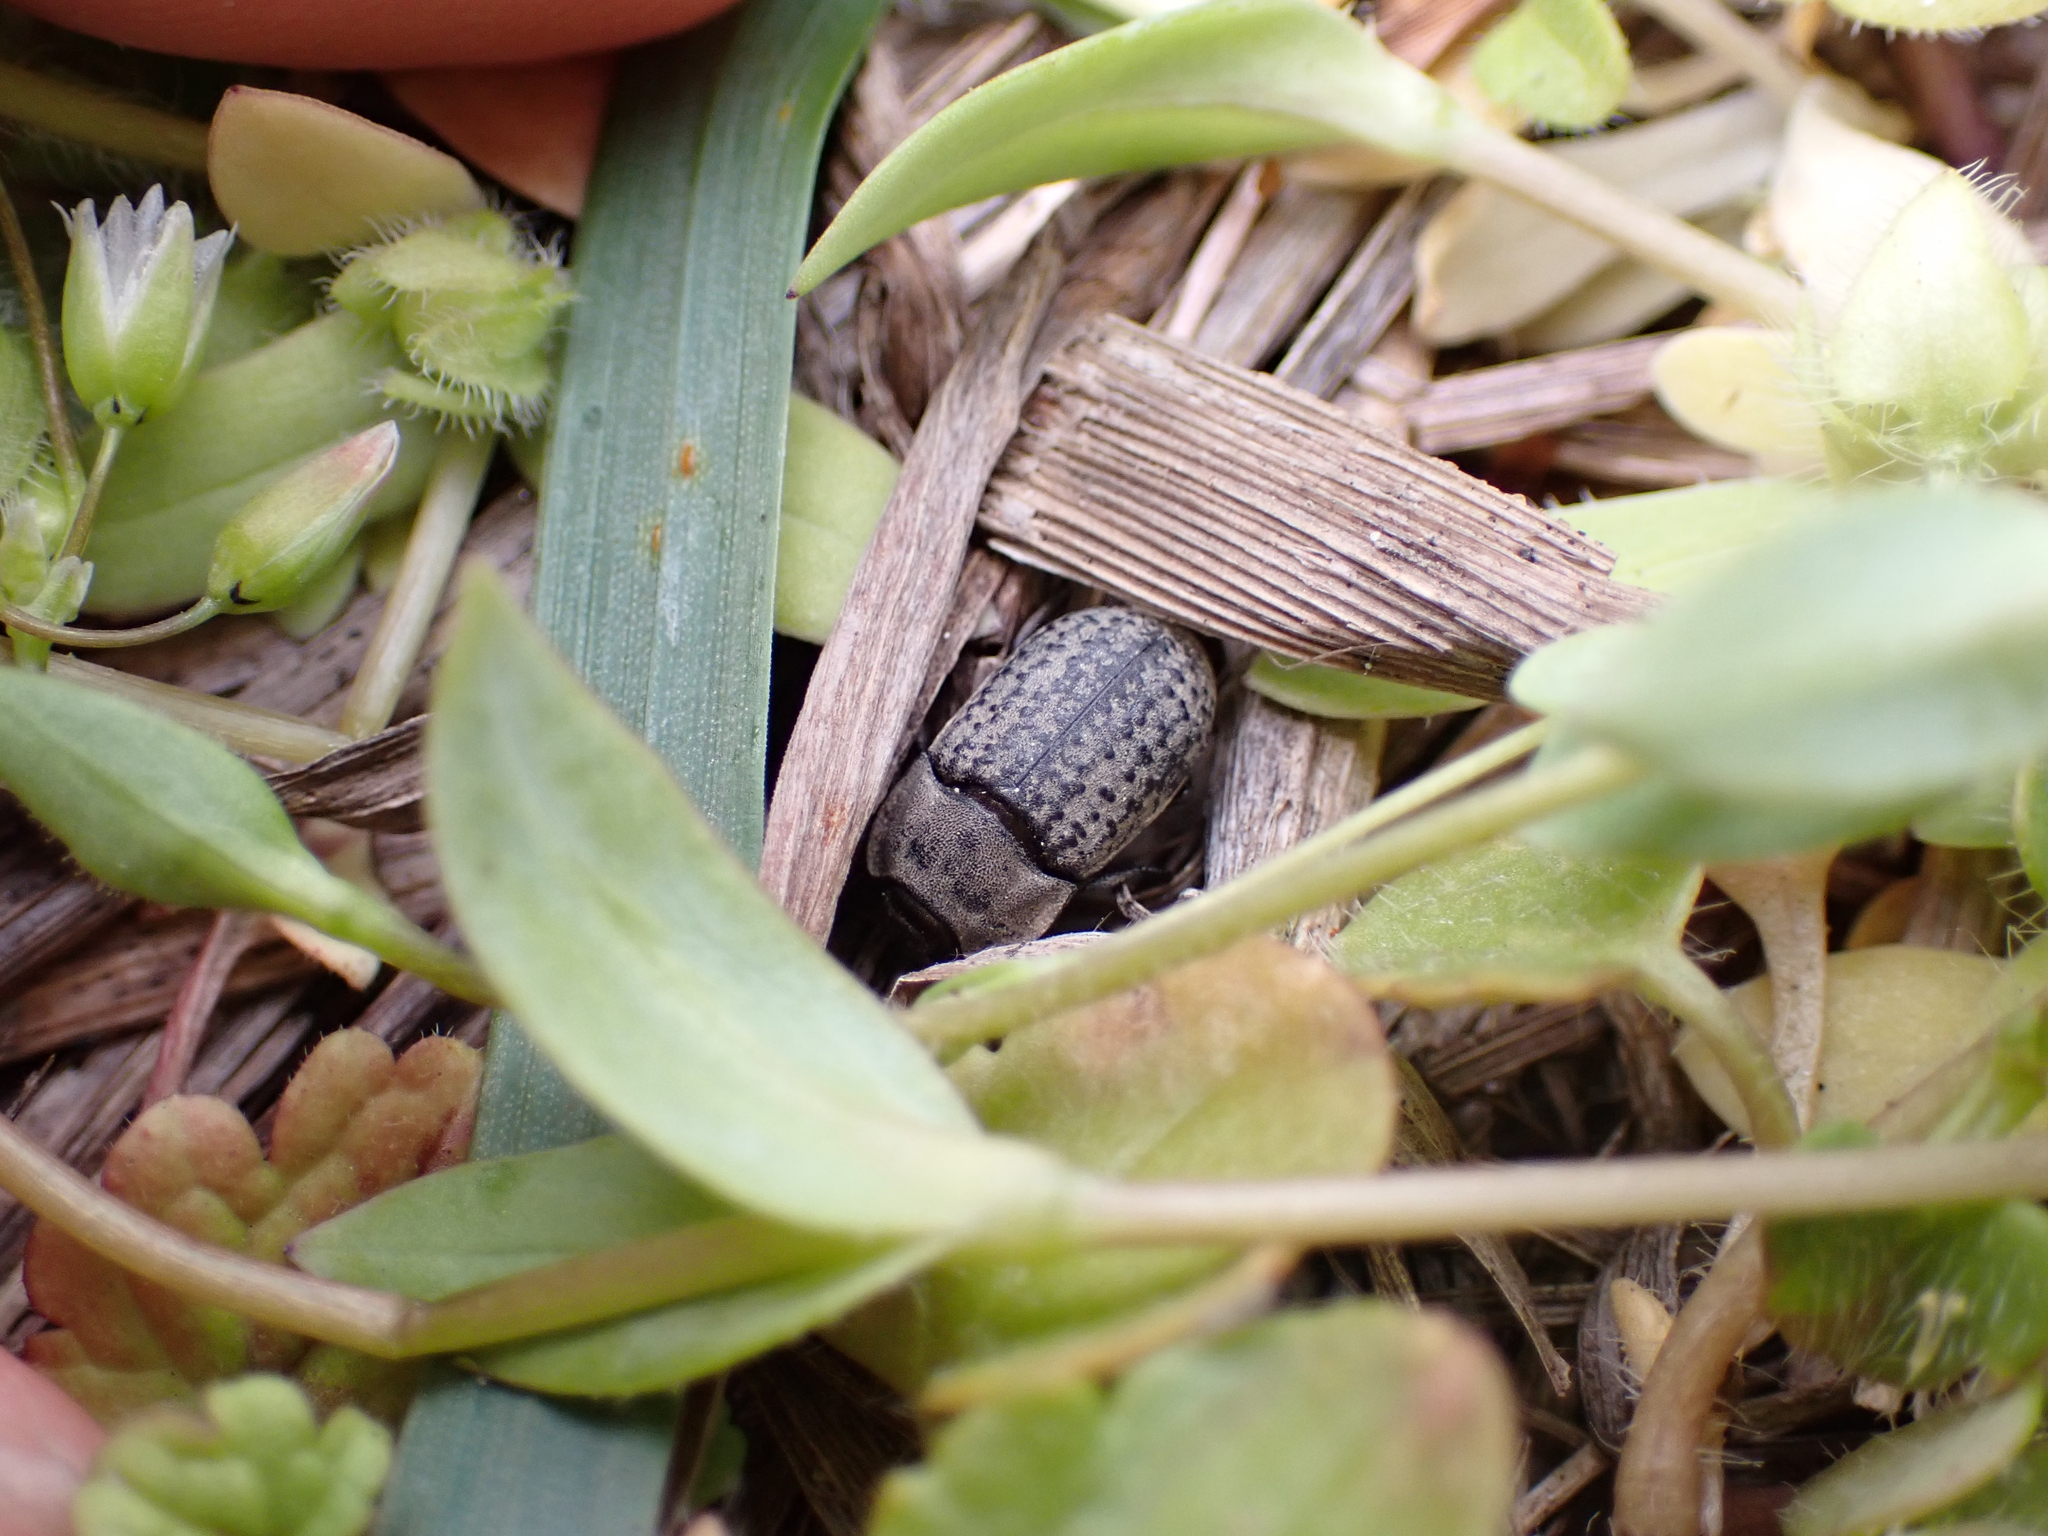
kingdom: Animalia
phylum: Arthropoda
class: Insecta
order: Coleoptera
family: Tenebrionidae
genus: Opatrum
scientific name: Opatrum sabulosum
